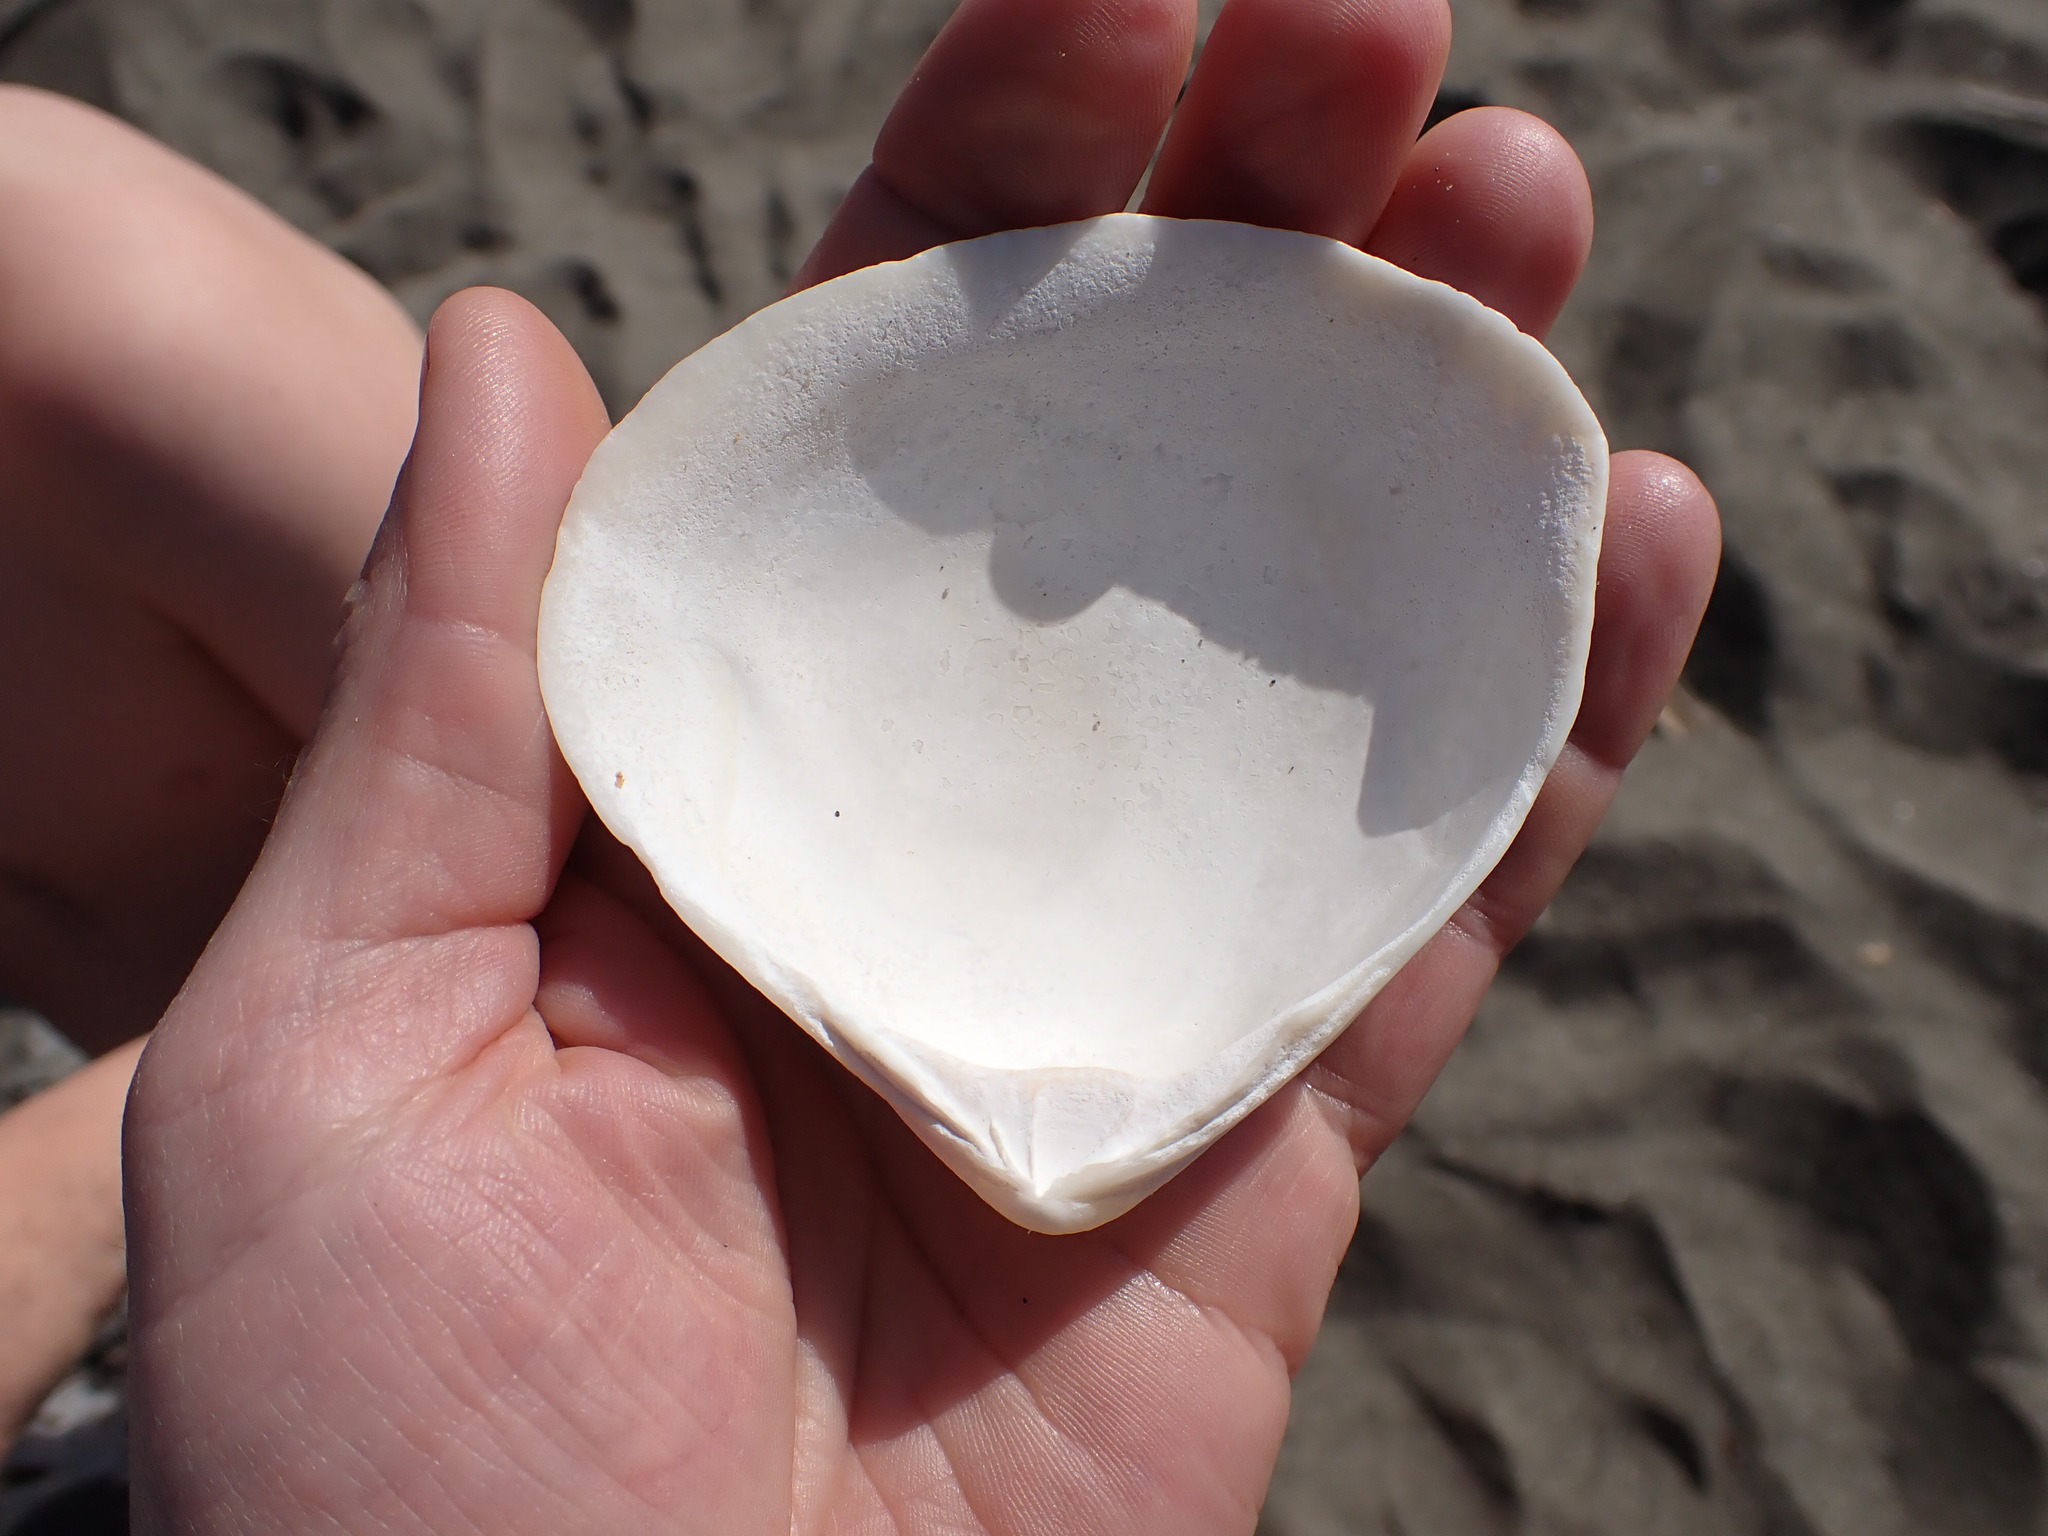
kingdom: Animalia
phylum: Mollusca
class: Bivalvia
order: Venerida
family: Mactridae
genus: Spisula
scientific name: Spisula murchisoni
